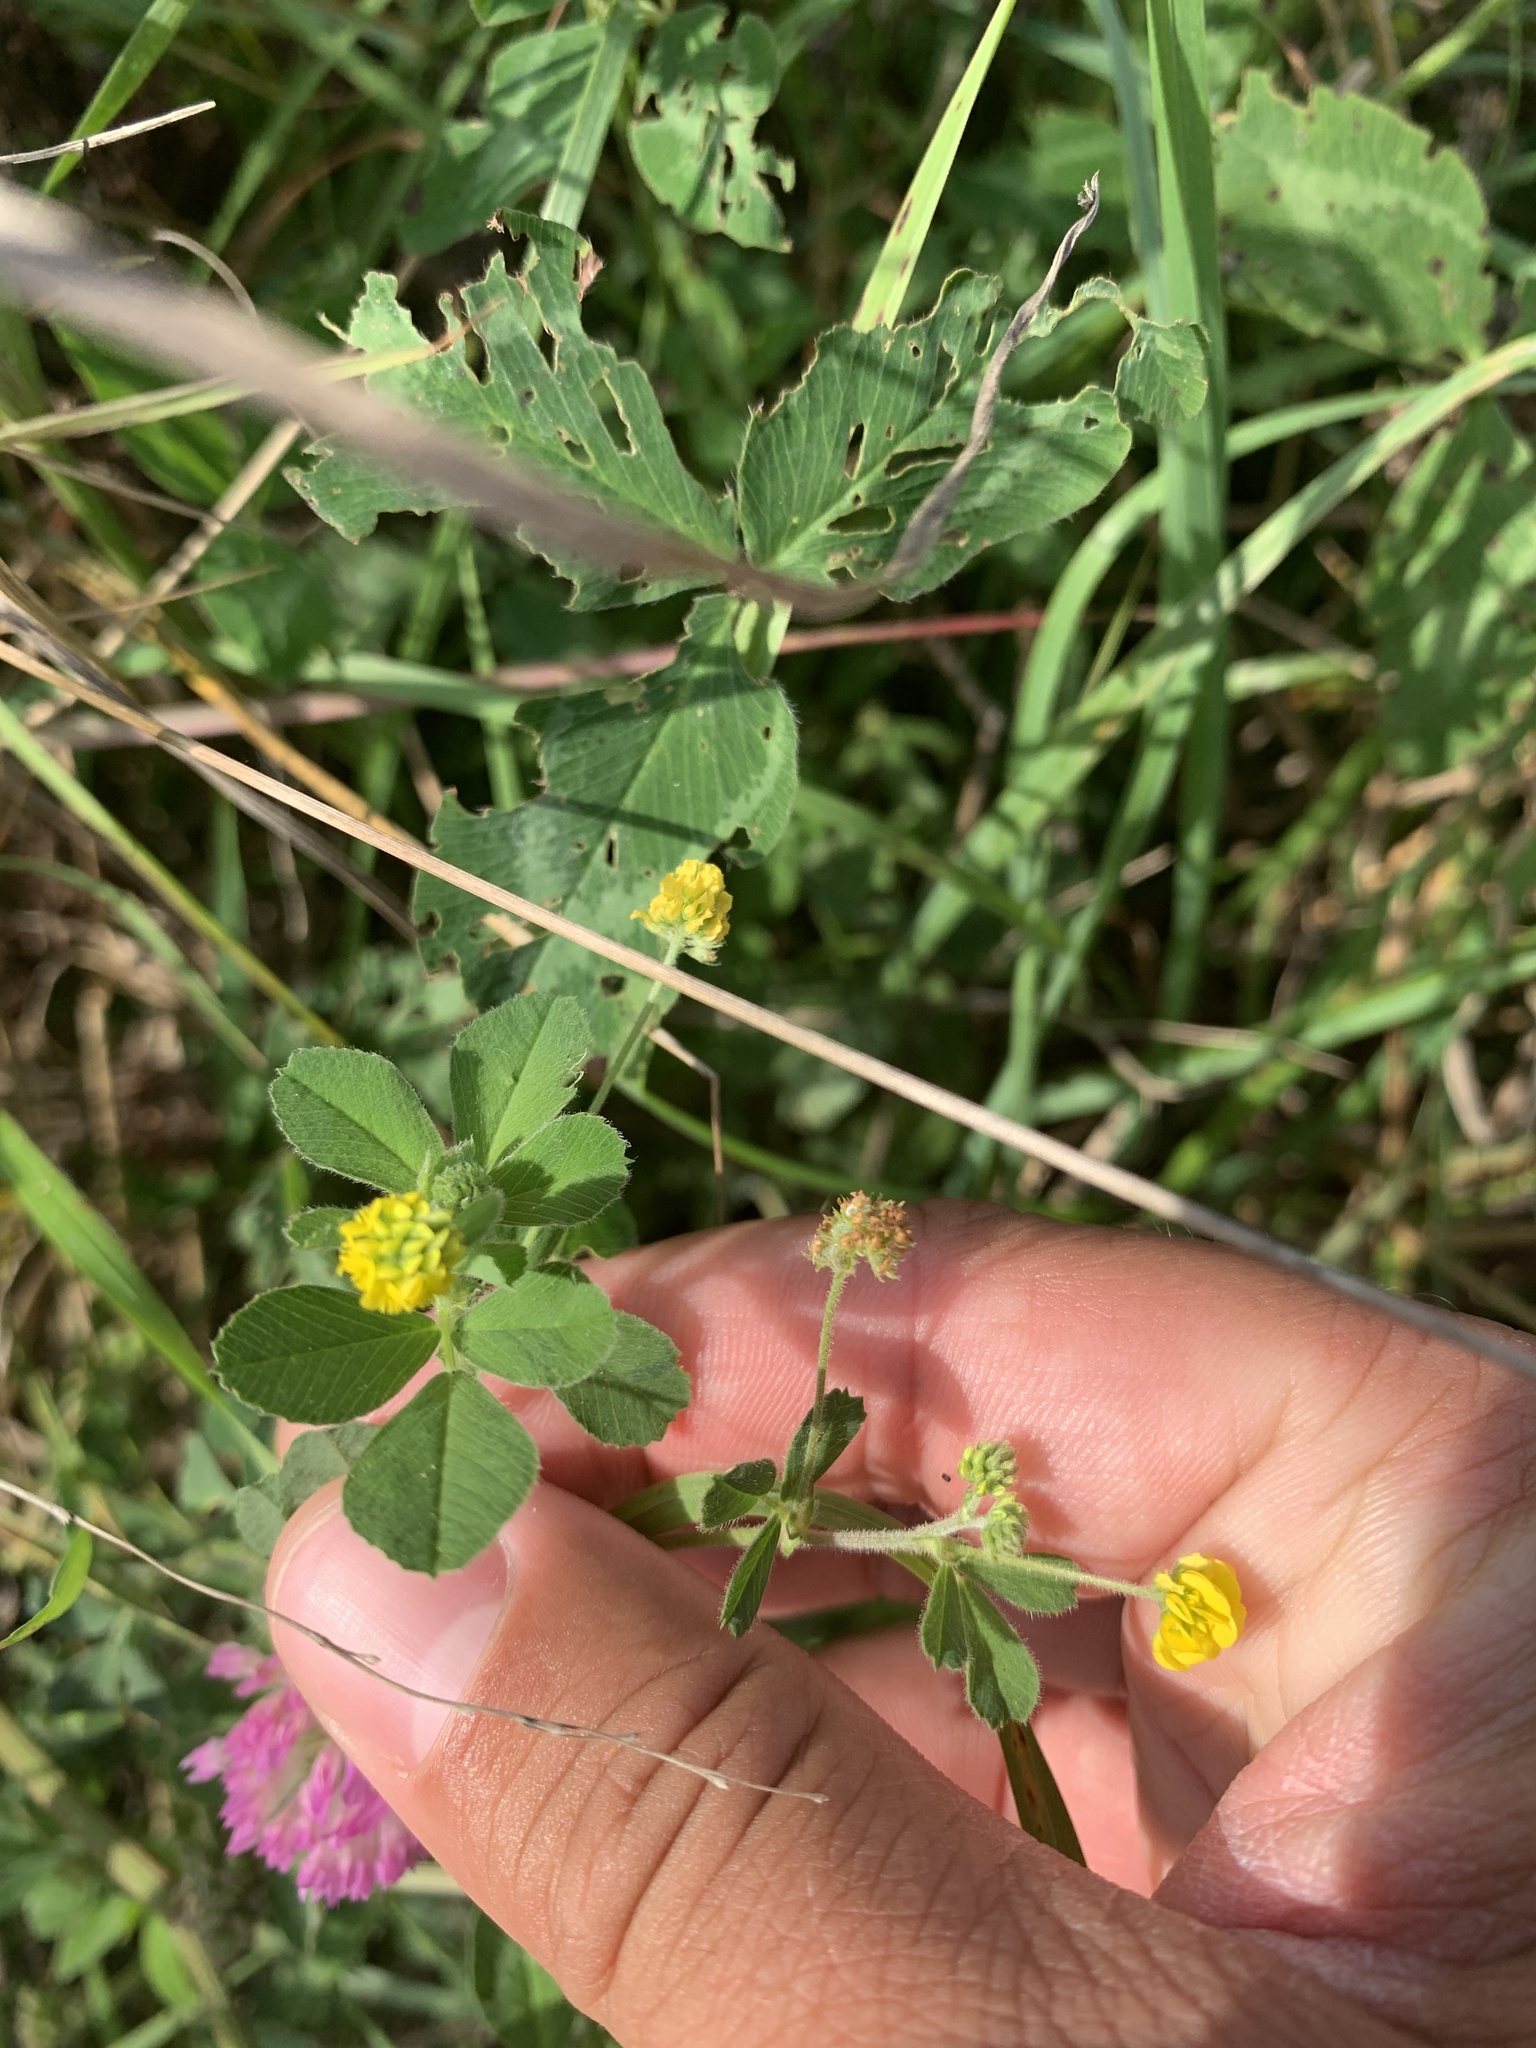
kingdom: Plantae
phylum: Tracheophyta
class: Magnoliopsida
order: Fabales
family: Fabaceae
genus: Medicago
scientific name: Medicago lupulina
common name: Black medick
